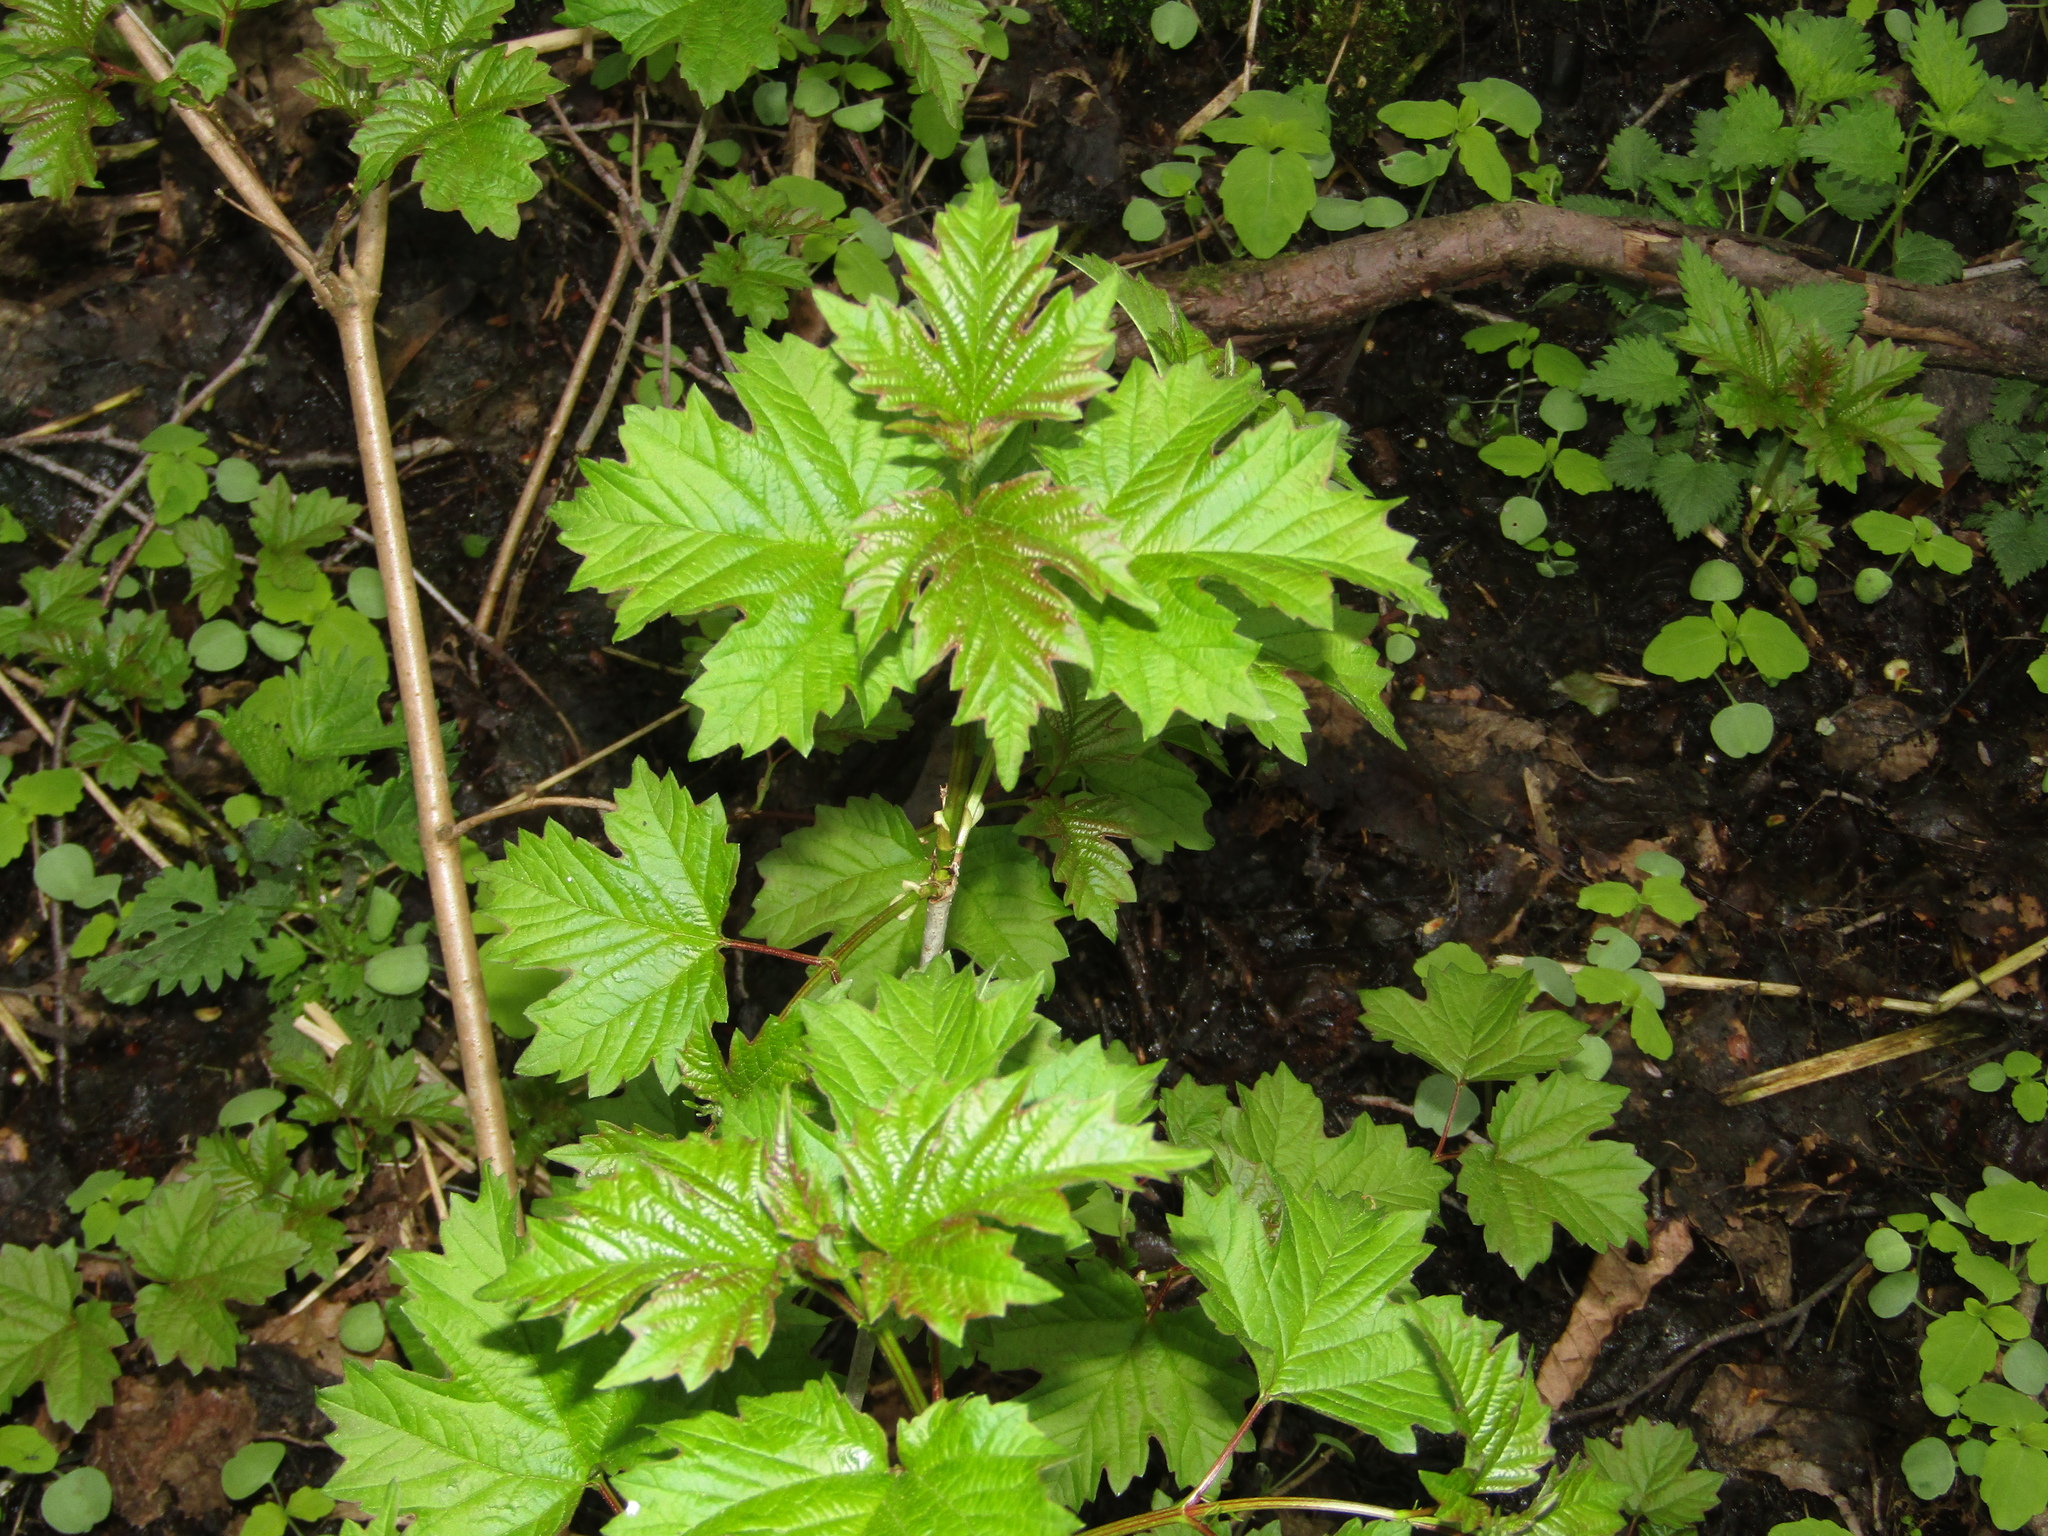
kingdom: Plantae
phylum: Tracheophyta
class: Magnoliopsida
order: Dipsacales
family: Viburnaceae
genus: Viburnum
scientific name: Viburnum opulus
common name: Guelder-rose
